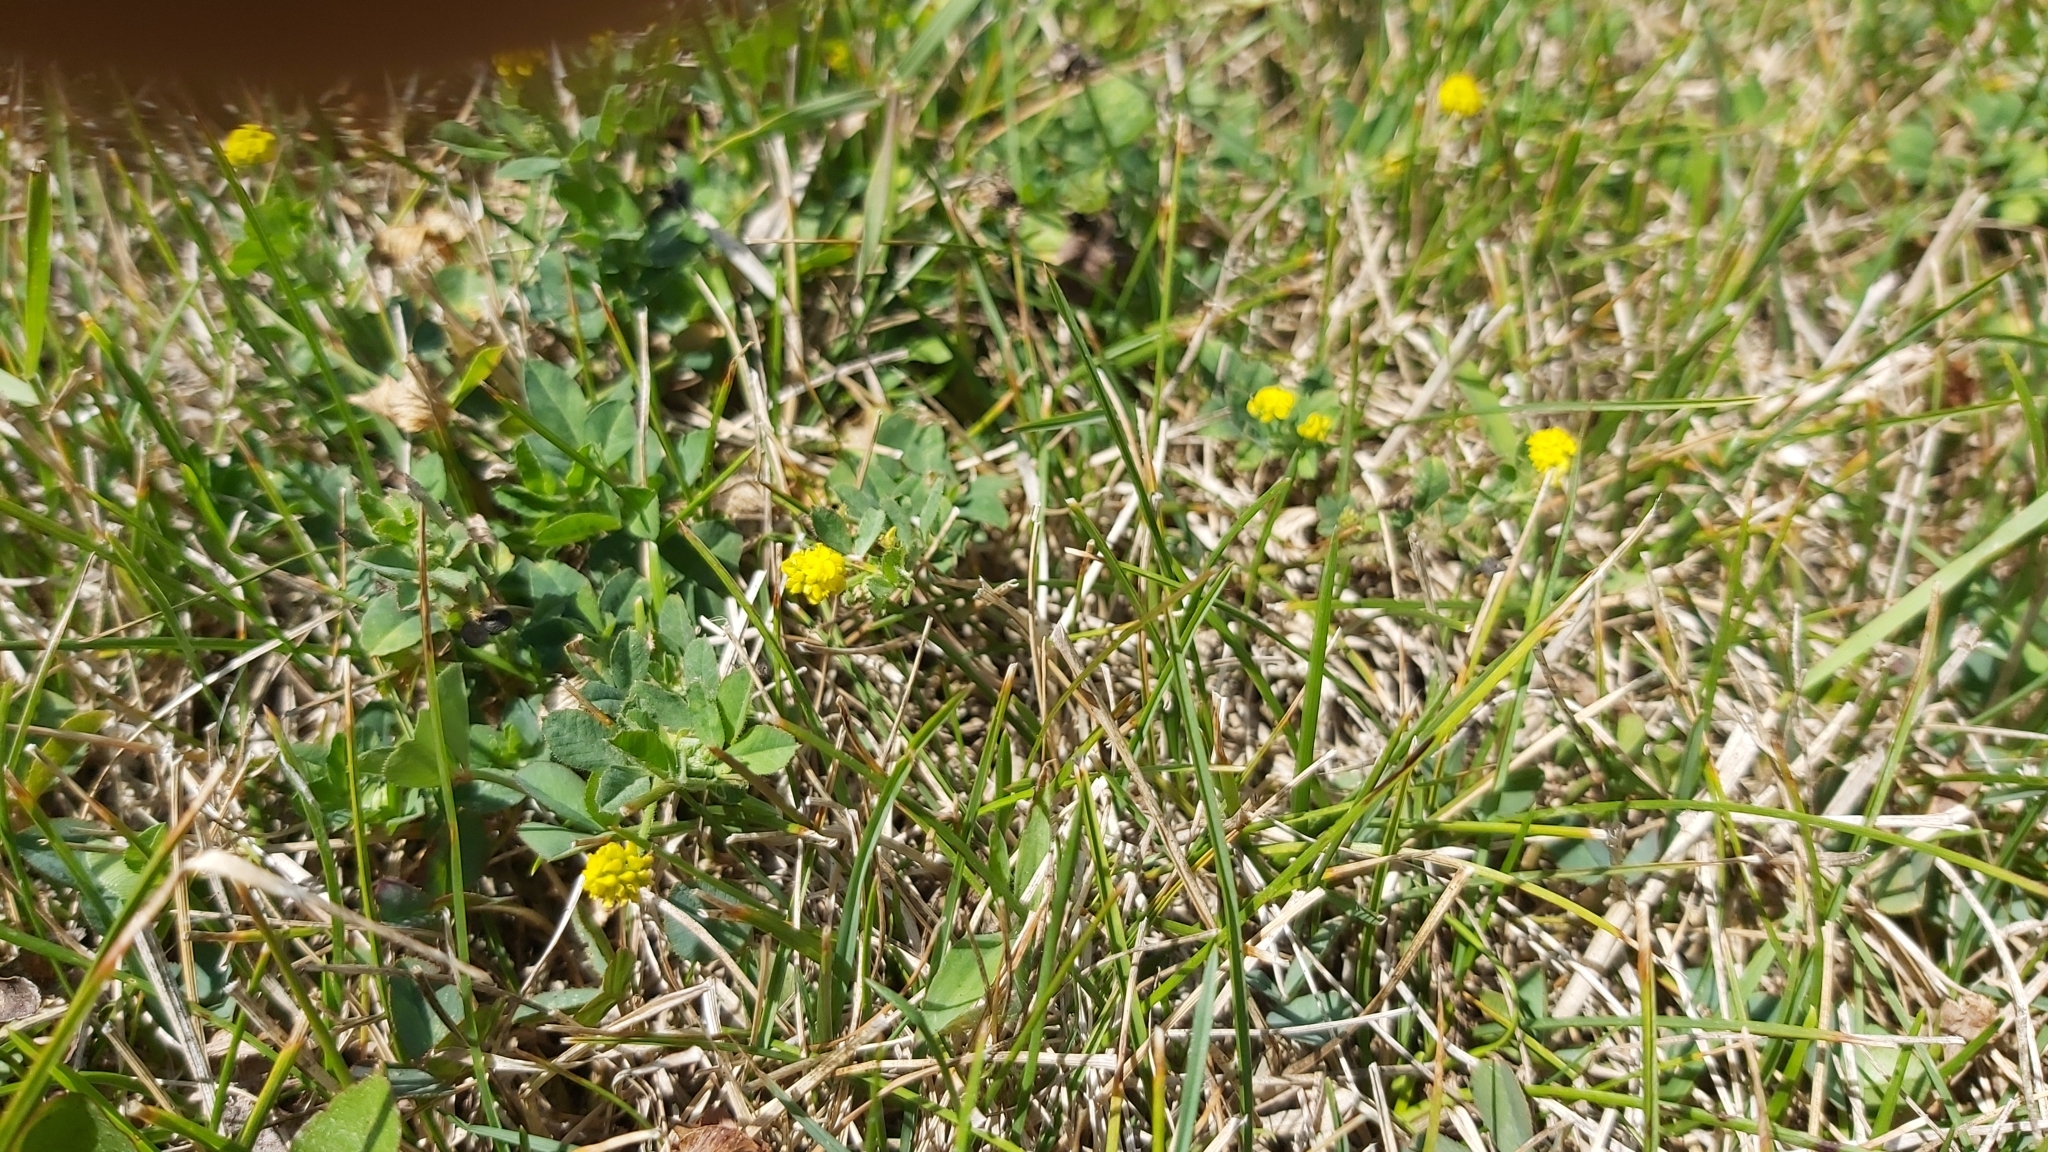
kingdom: Plantae
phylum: Tracheophyta
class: Magnoliopsida
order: Fabales
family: Fabaceae
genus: Medicago
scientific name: Medicago lupulina
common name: Black medick
